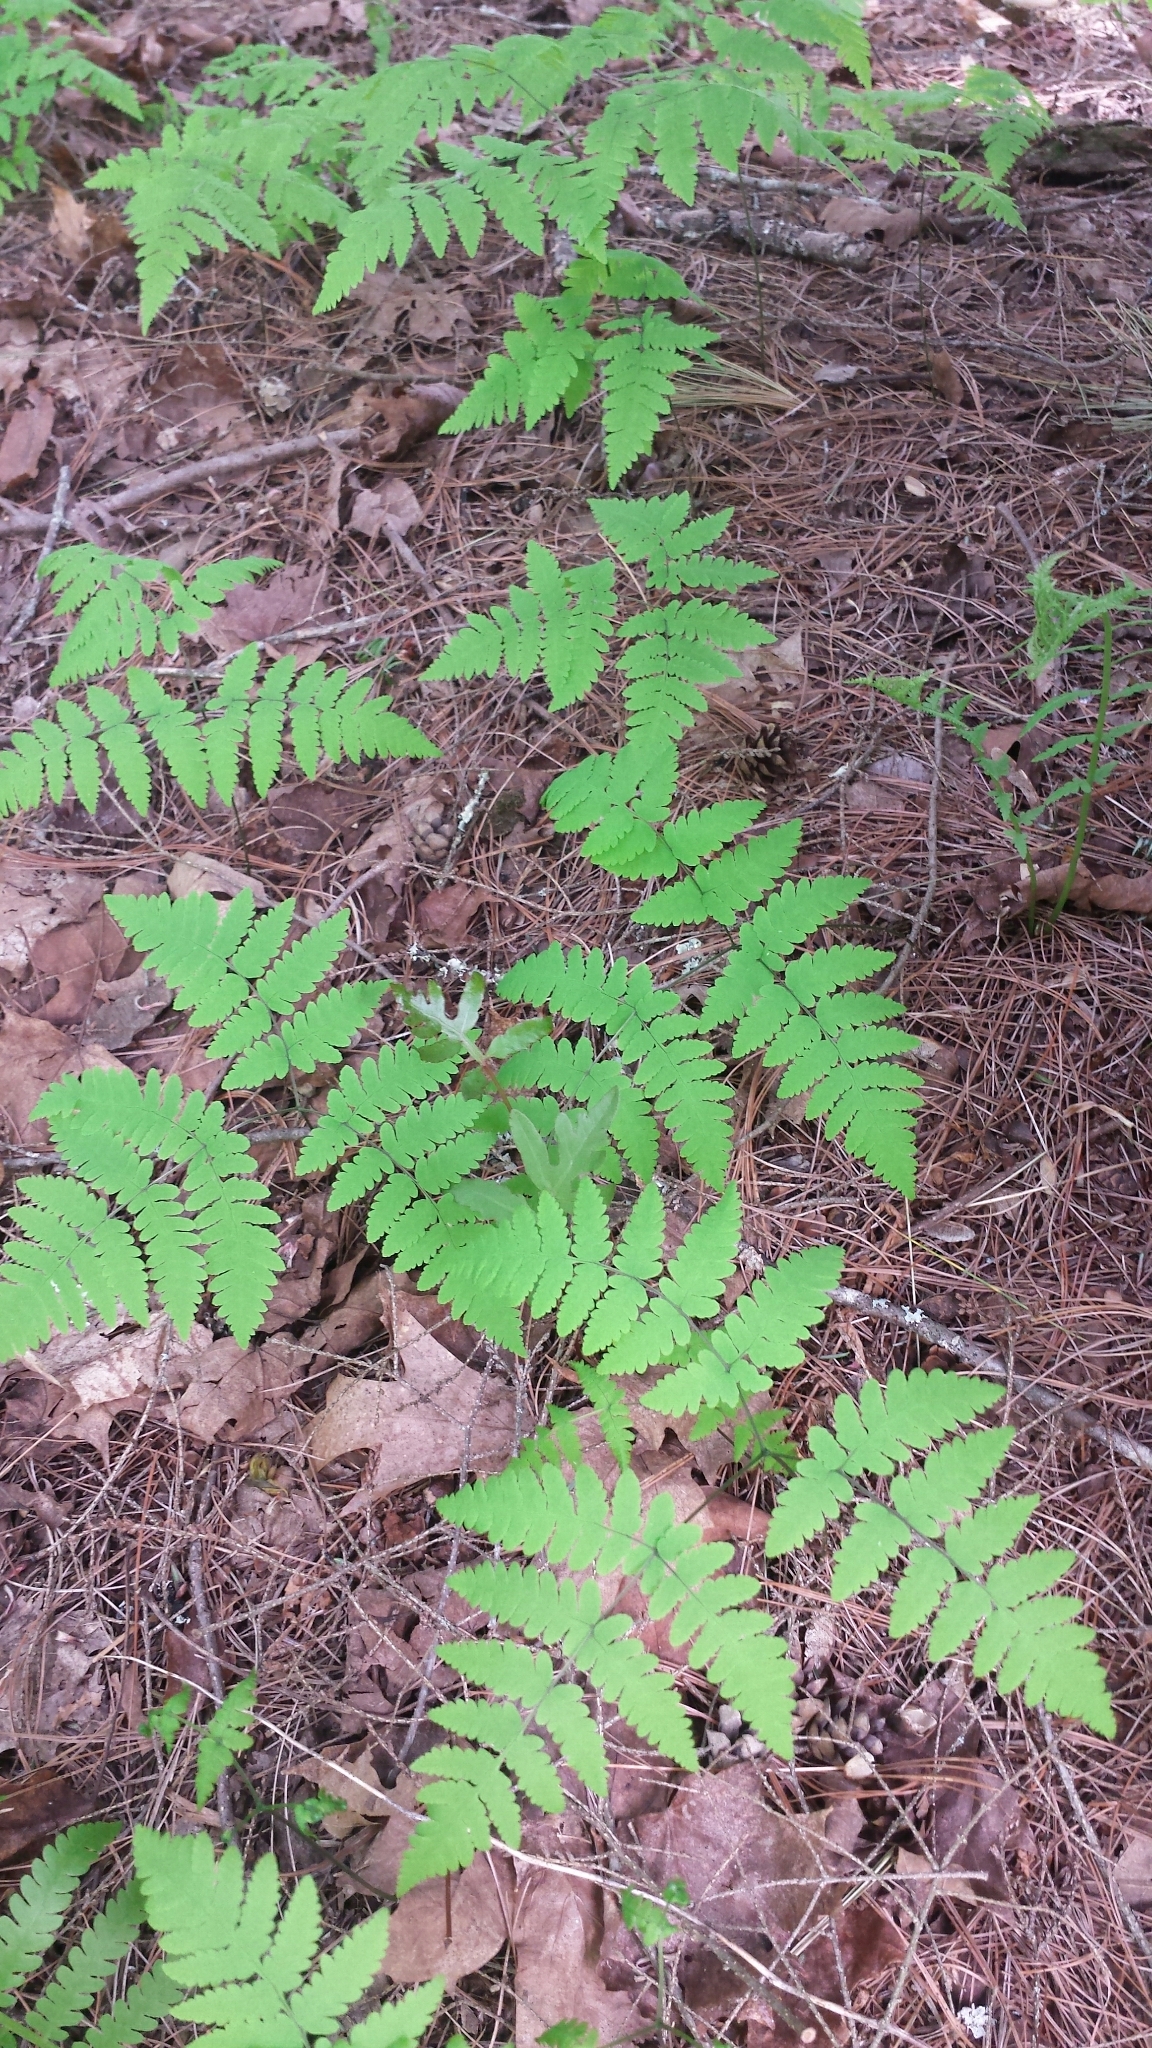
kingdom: Plantae
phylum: Tracheophyta
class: Polypodiopsida
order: Polypodiales
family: Cystopteridaceae
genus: Gymnocarpium
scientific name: Gymnocarpium dryopteris
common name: Oak fern
